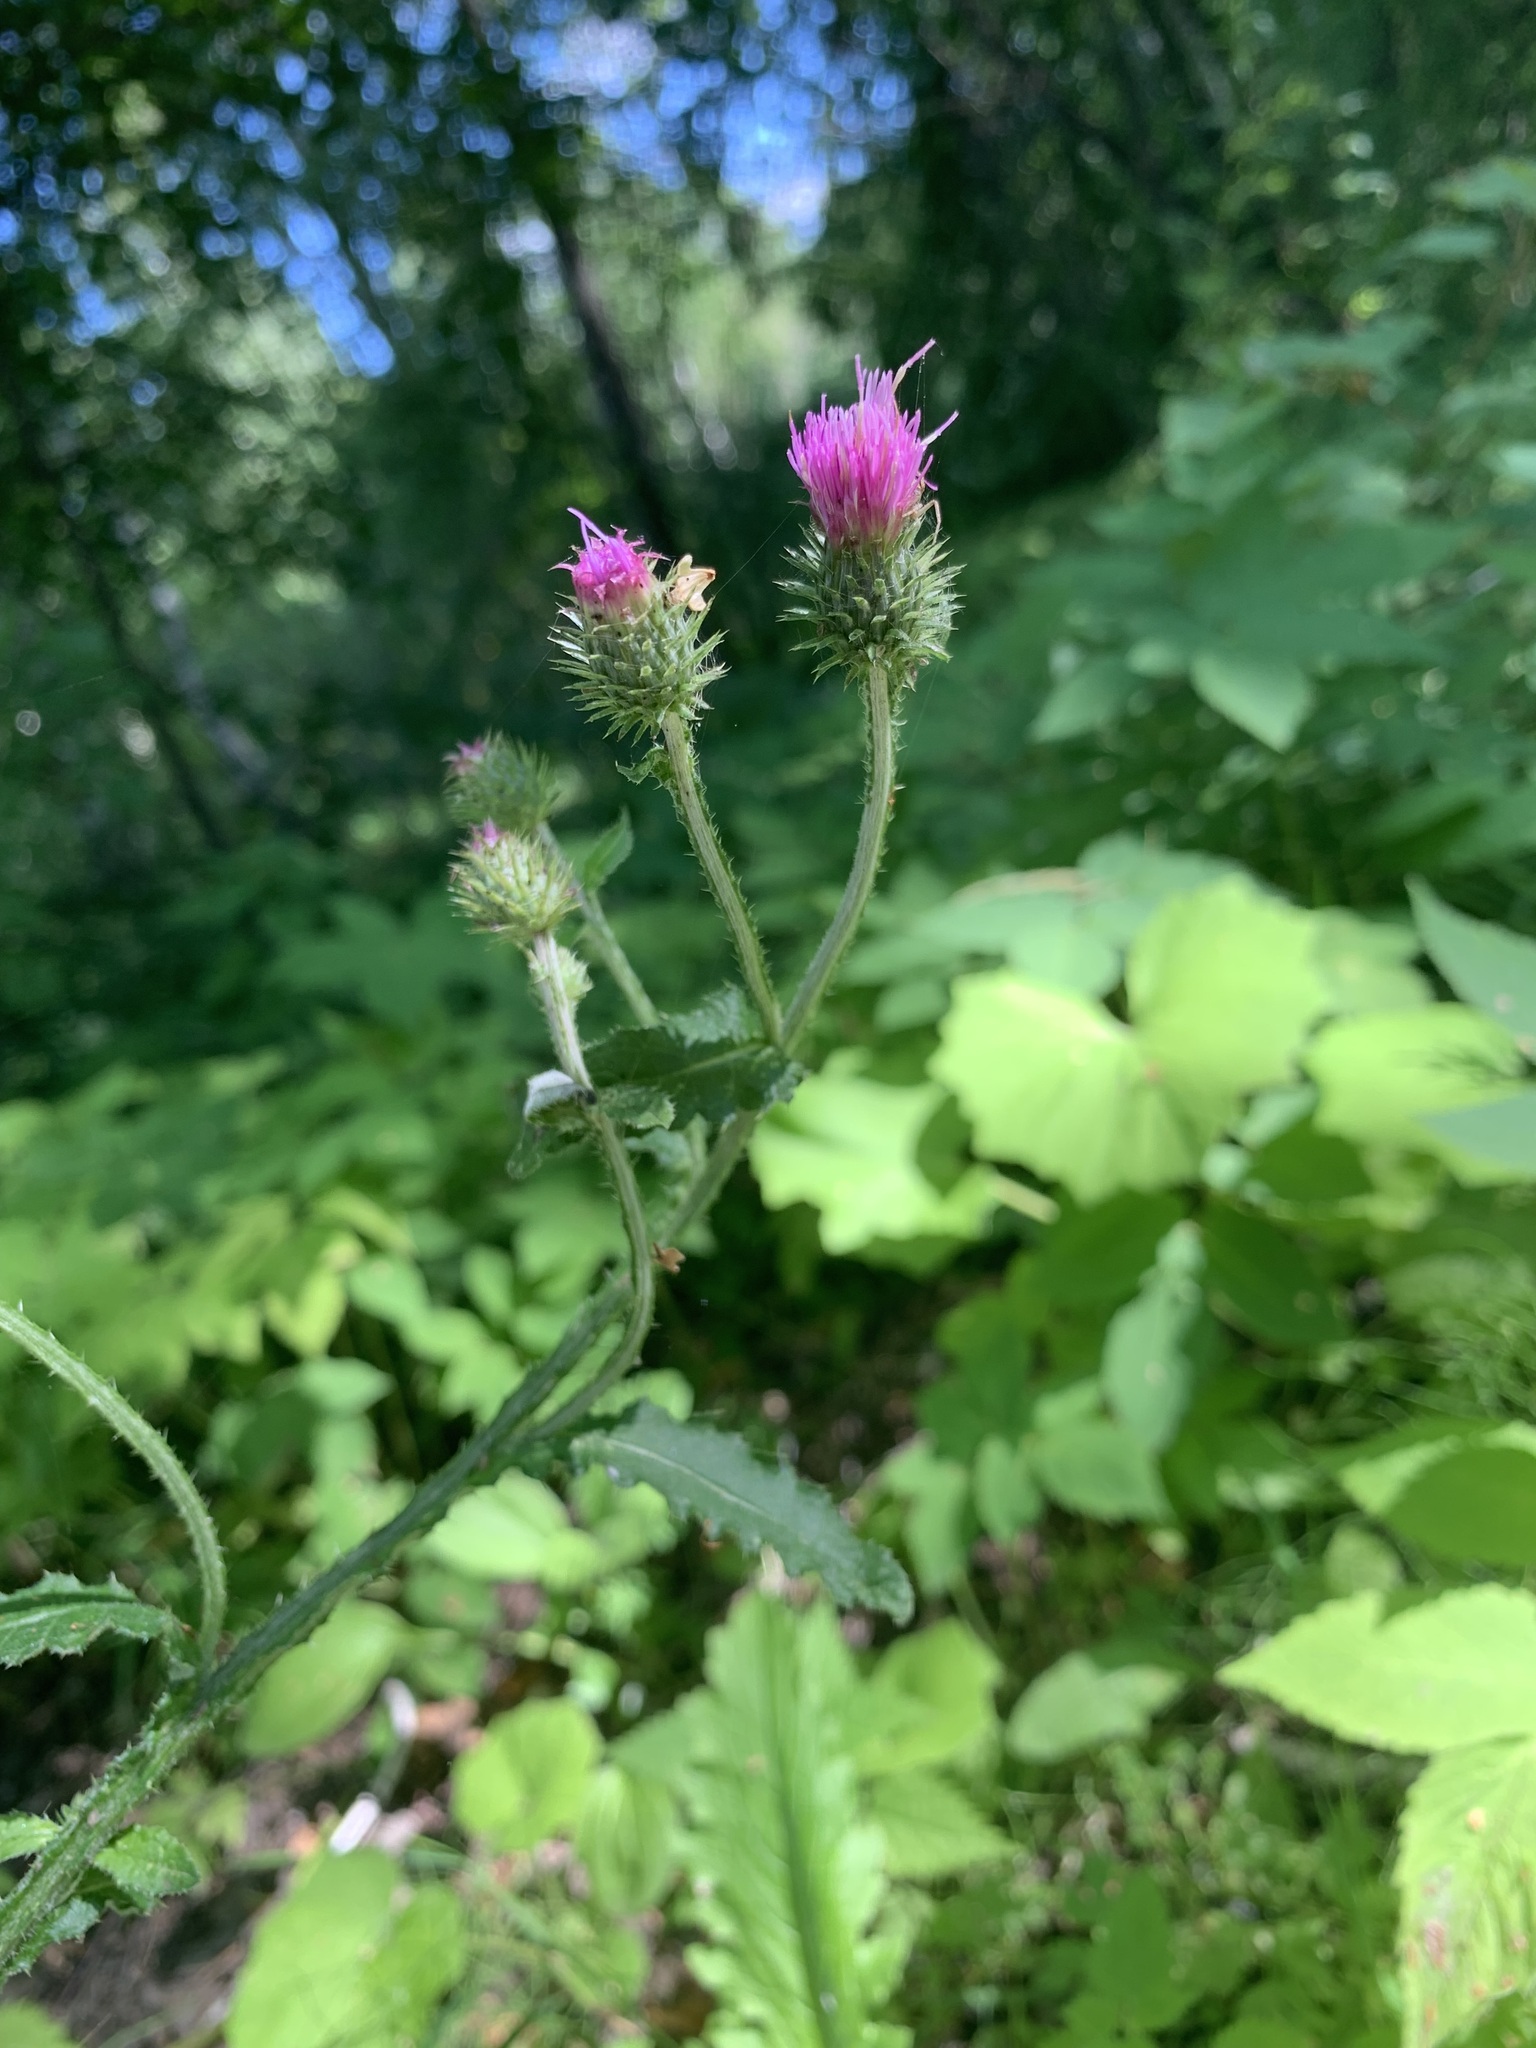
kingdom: Plantae
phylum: Tracheophyta
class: Magnoliopsida
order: Asterales
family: Asteraceae
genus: Carduus
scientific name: Carduus crispus
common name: Welted thistle
